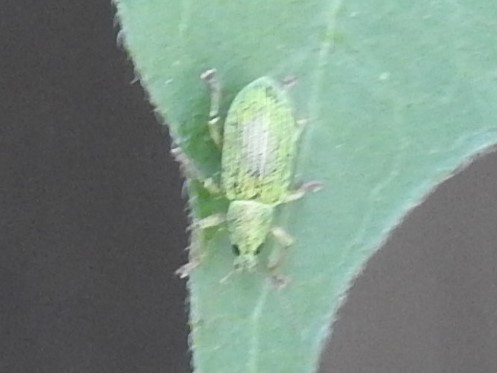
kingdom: Animalia
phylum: Arthropoda
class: Insecta
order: Coleoptera
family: Curculionidae
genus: Polydrusus
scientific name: Polydrusus formosus
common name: Weevil
